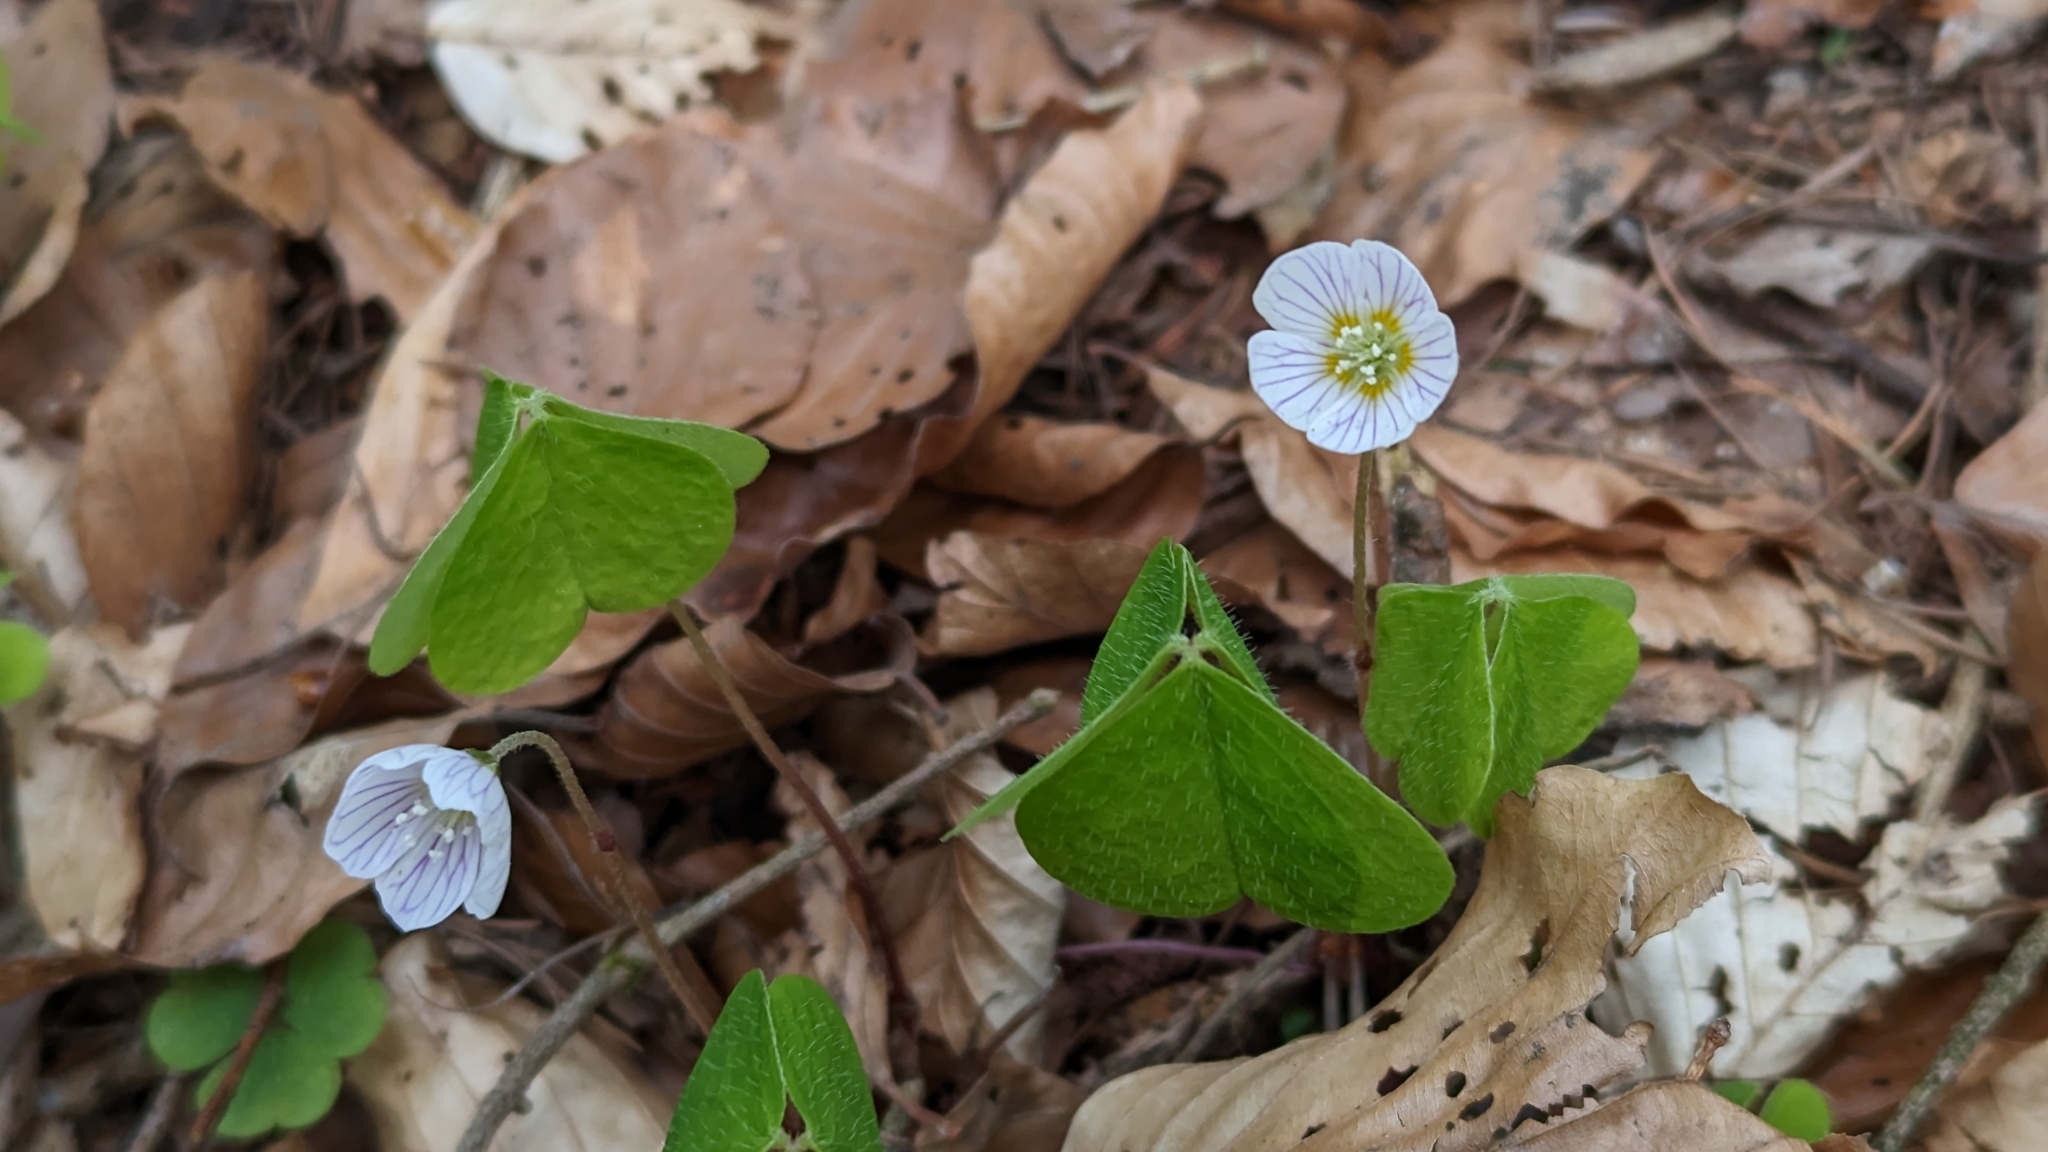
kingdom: Plantae
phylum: Tracheophyta
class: Magnoliopsida
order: Oxalidales
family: Oxalidaceae
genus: Oxalis
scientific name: Oxalis acetosella
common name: Wood-sorrel
